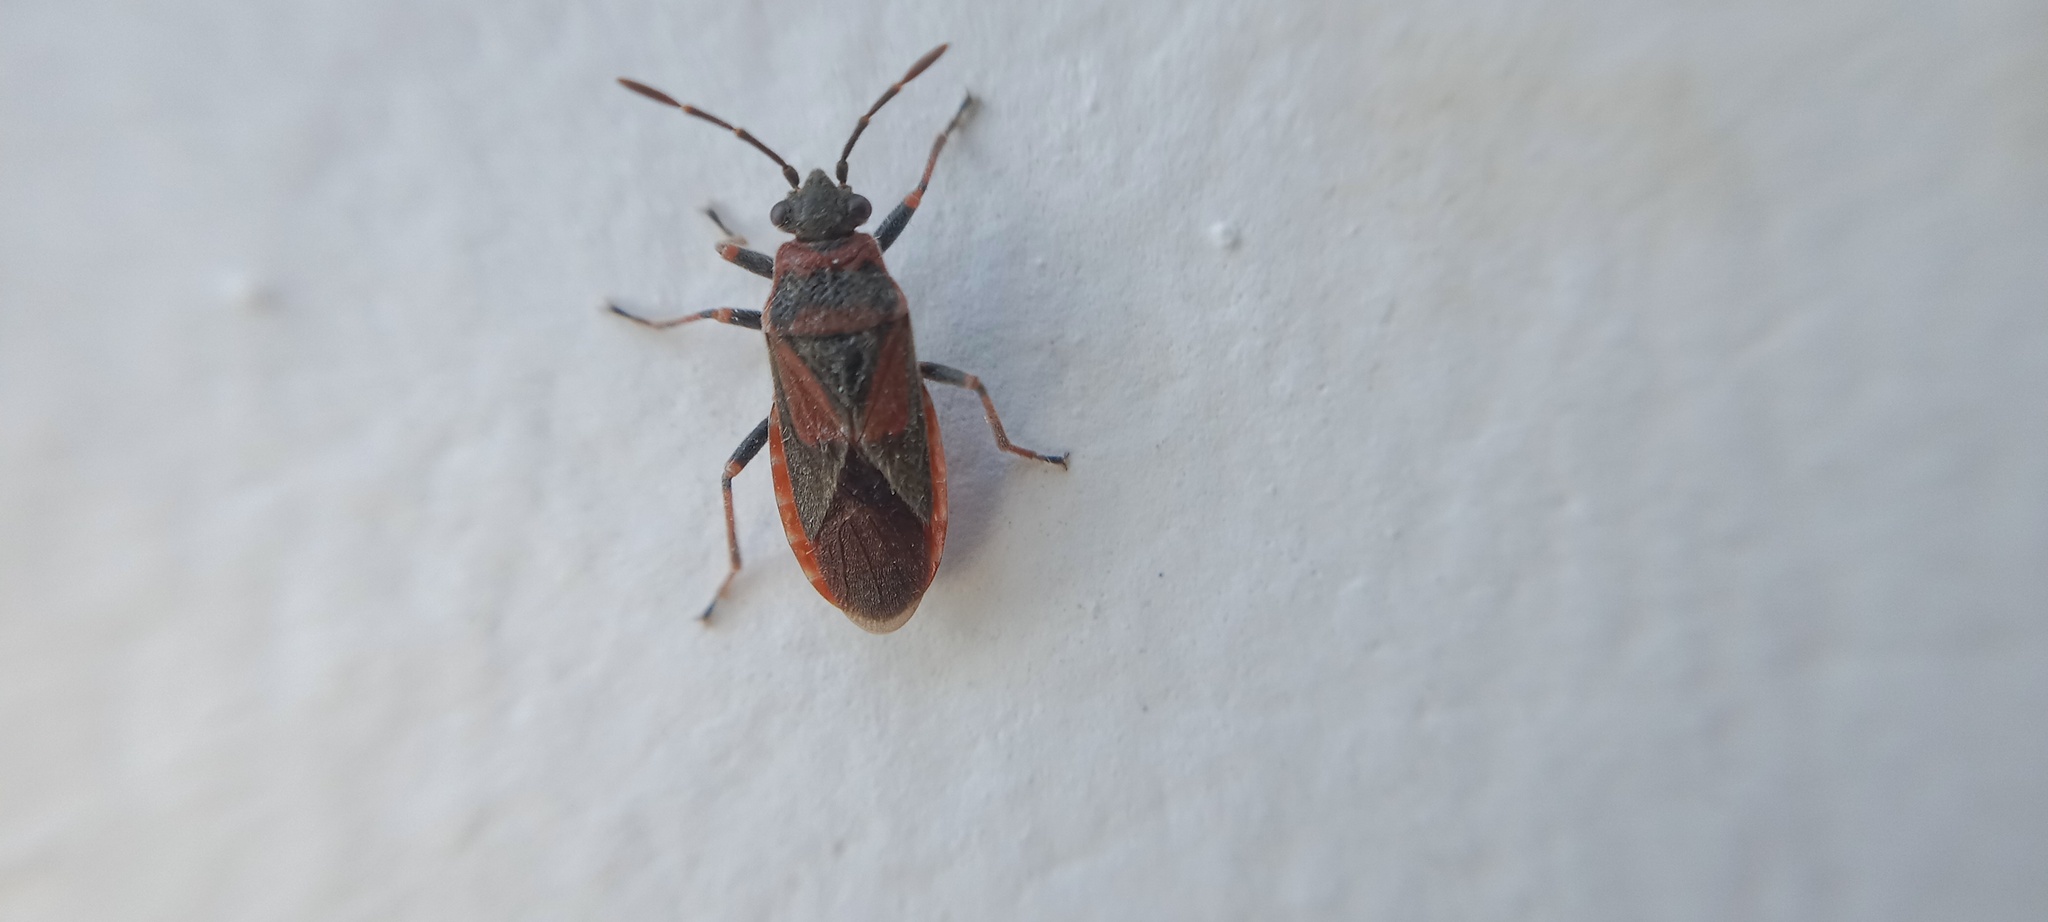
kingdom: Animalia
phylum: Arthropoda
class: Insecta
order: Hemiptera
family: Lygaeidae
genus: Arocatus
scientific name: Arocatus melanocephalus
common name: Lygaeid bug
